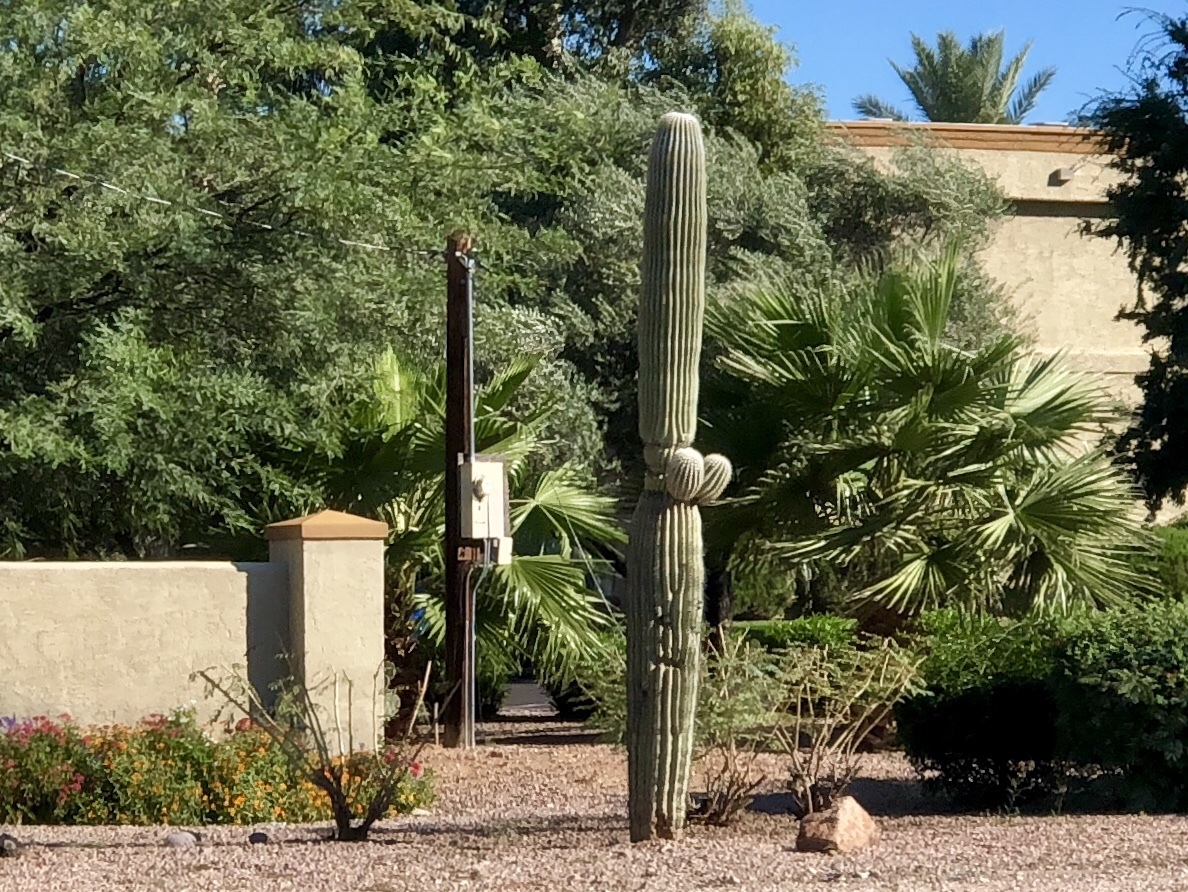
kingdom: Plantae
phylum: Tracheophyta
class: Magnoliopsida
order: Caryophyllales
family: Cactaceae
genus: Carnegiea
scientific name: Carnegiea gigantea
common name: Saguaro
